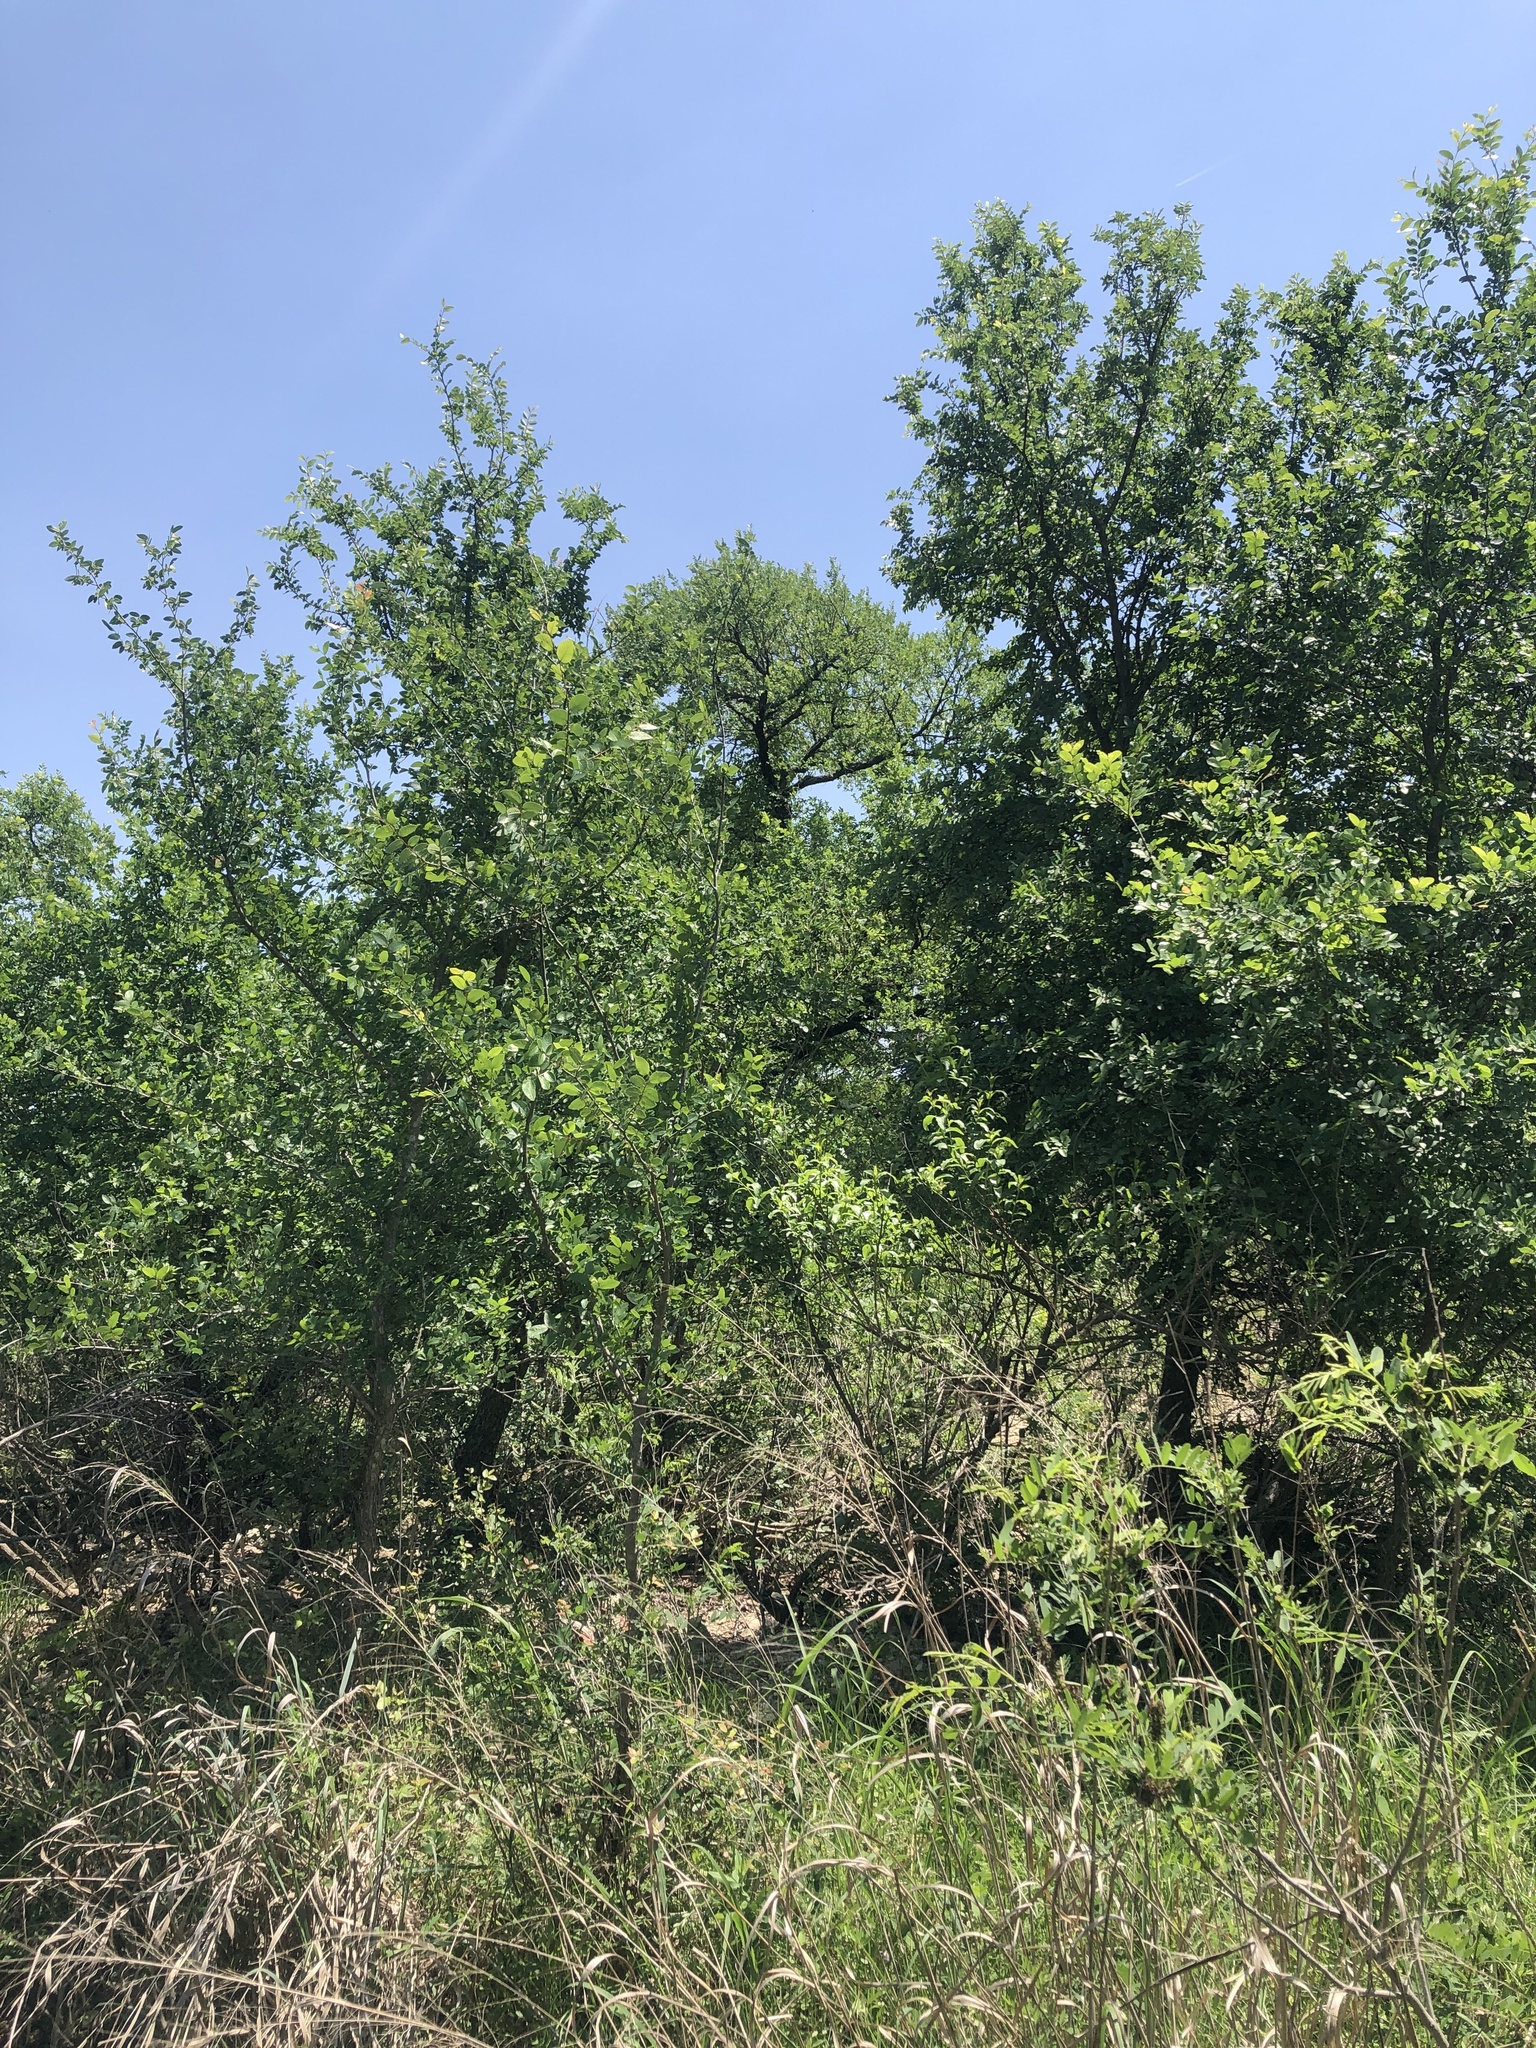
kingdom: Animalia
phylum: Chordata
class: Aves
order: Passeriformes
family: Cardinalidae
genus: Passerina
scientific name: Passerina ciris
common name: Painted bunting
